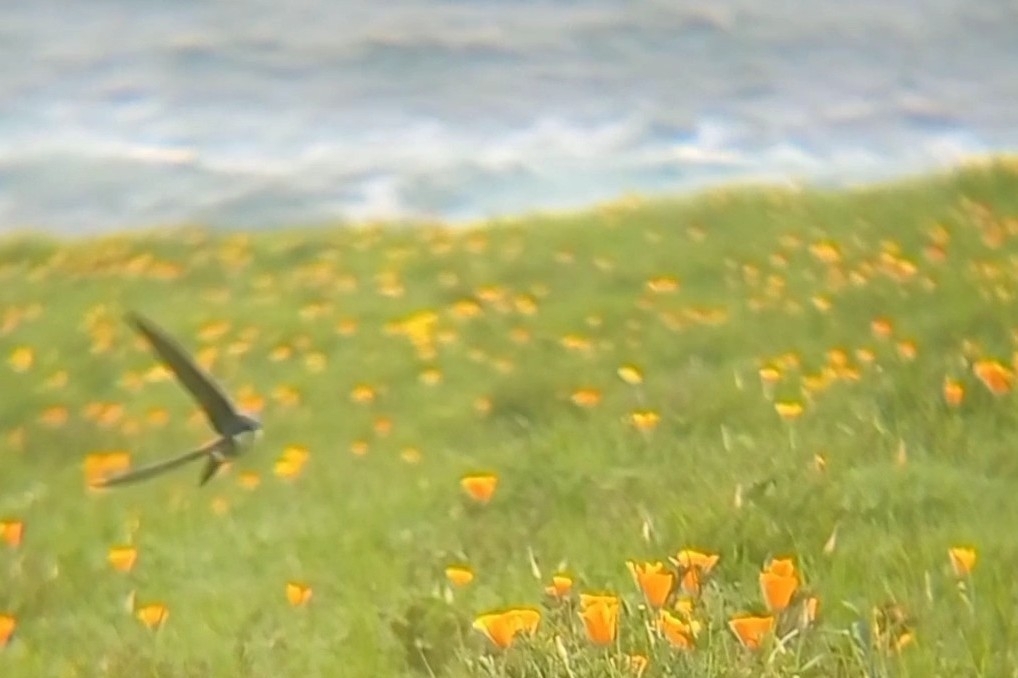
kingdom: Animalia
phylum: Chordata
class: Aves
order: Passeriformes
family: Hirundinidae
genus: Tachycineta
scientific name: Tachycineta leucopyga
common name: Chilean swallow
